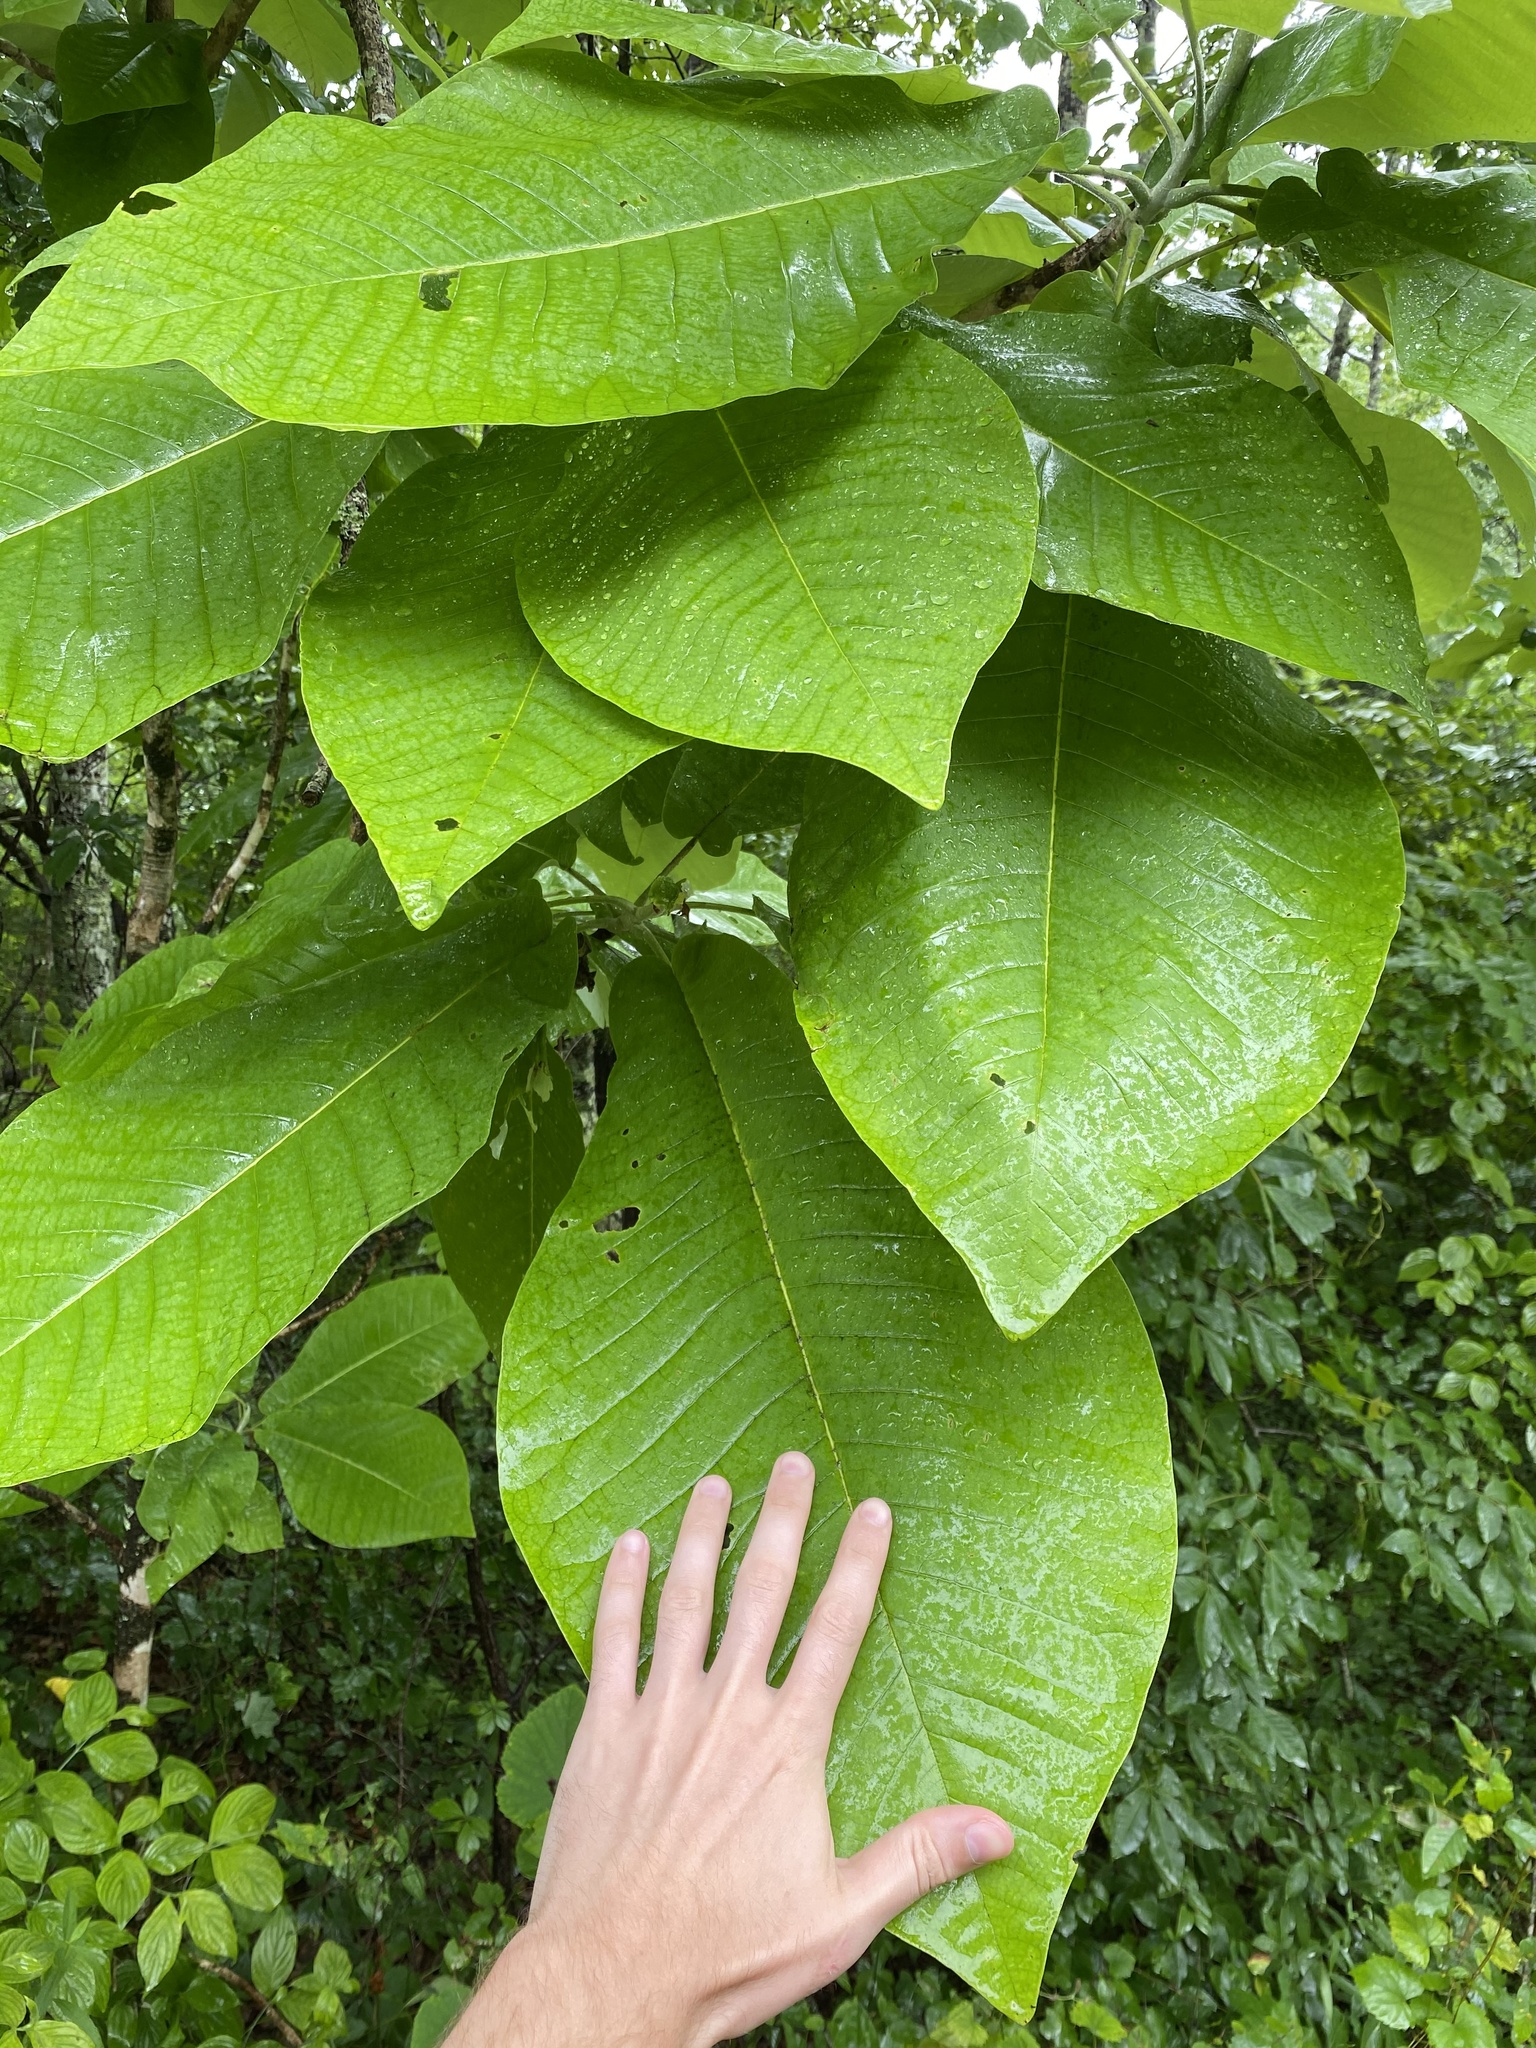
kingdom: Plantae
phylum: Tracheophyta
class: Magnoliopsida
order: Magnoliales
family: Magnoliaceae
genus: Magnolia
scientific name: Magnolia macrophylla
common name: Big-leaf magnolia
